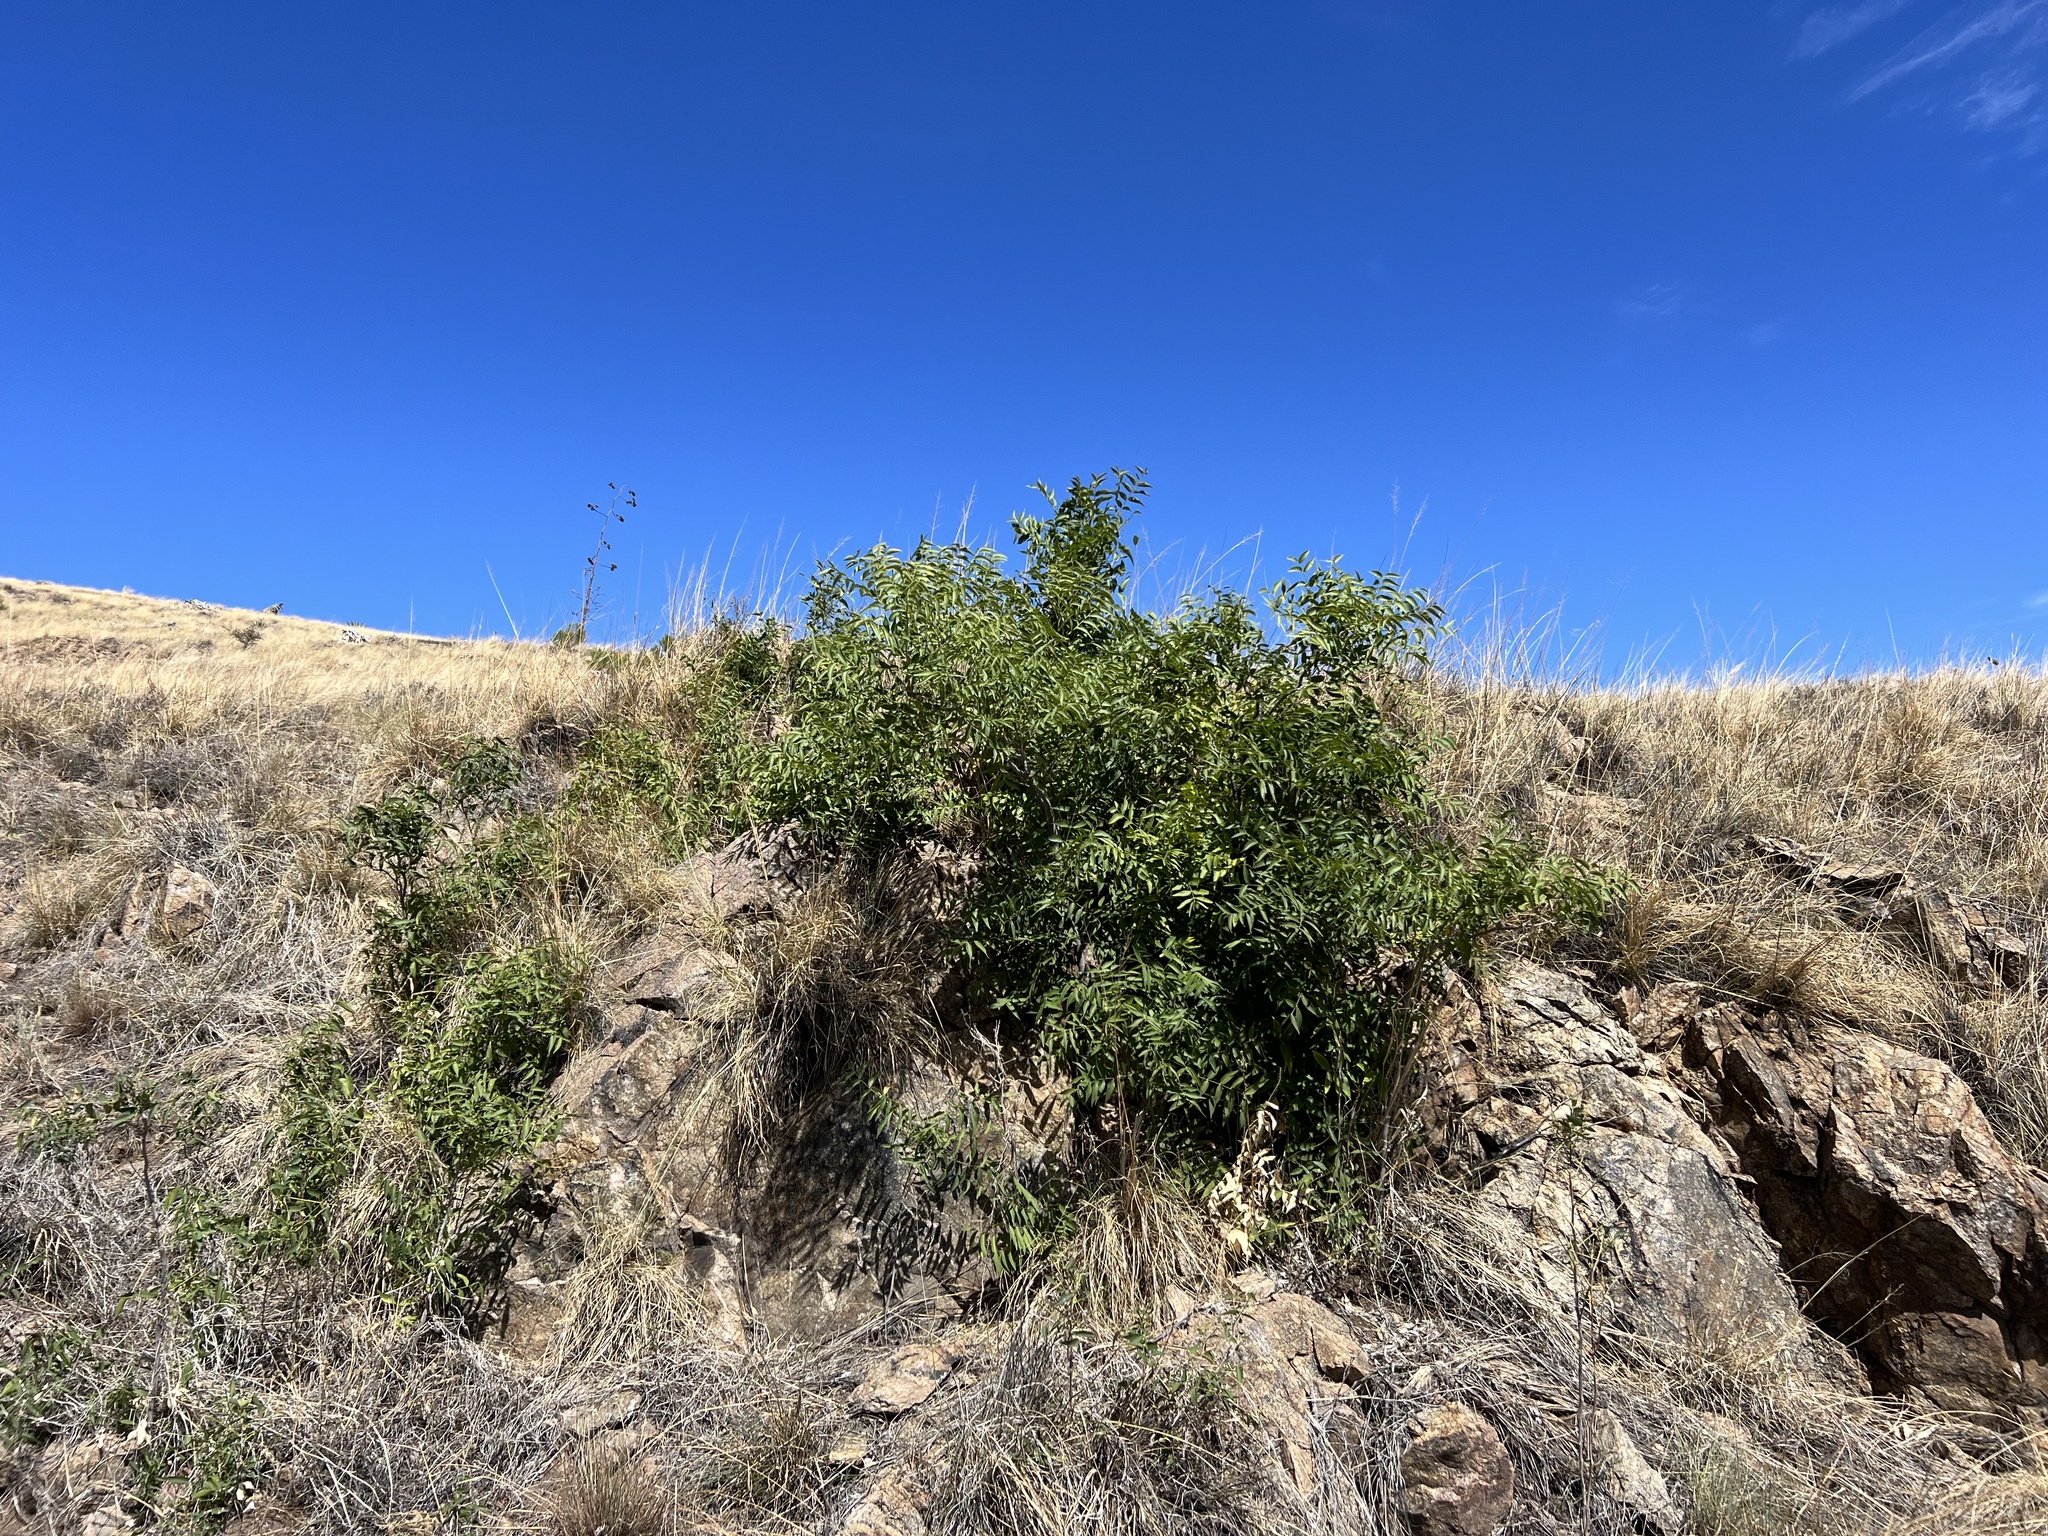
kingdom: Plantae
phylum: Tracheophyta
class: Magnoliopsida
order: Fagales
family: Juglandaceae
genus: Juglans
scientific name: Juglans major
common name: Arizona walnut
